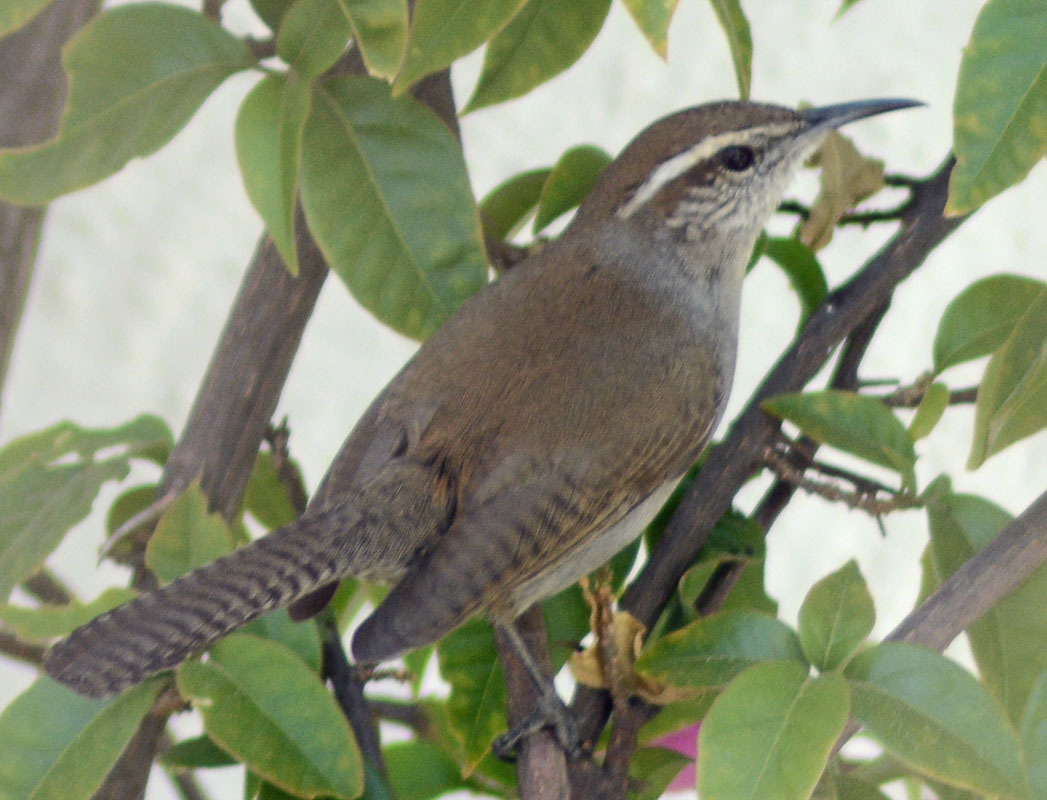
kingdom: Animalia
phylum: Chordata
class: Aves
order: Passeriformes
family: Troglodytidae
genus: Thryomanes
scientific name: Thryomanes bewickii
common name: Bewick's wren
